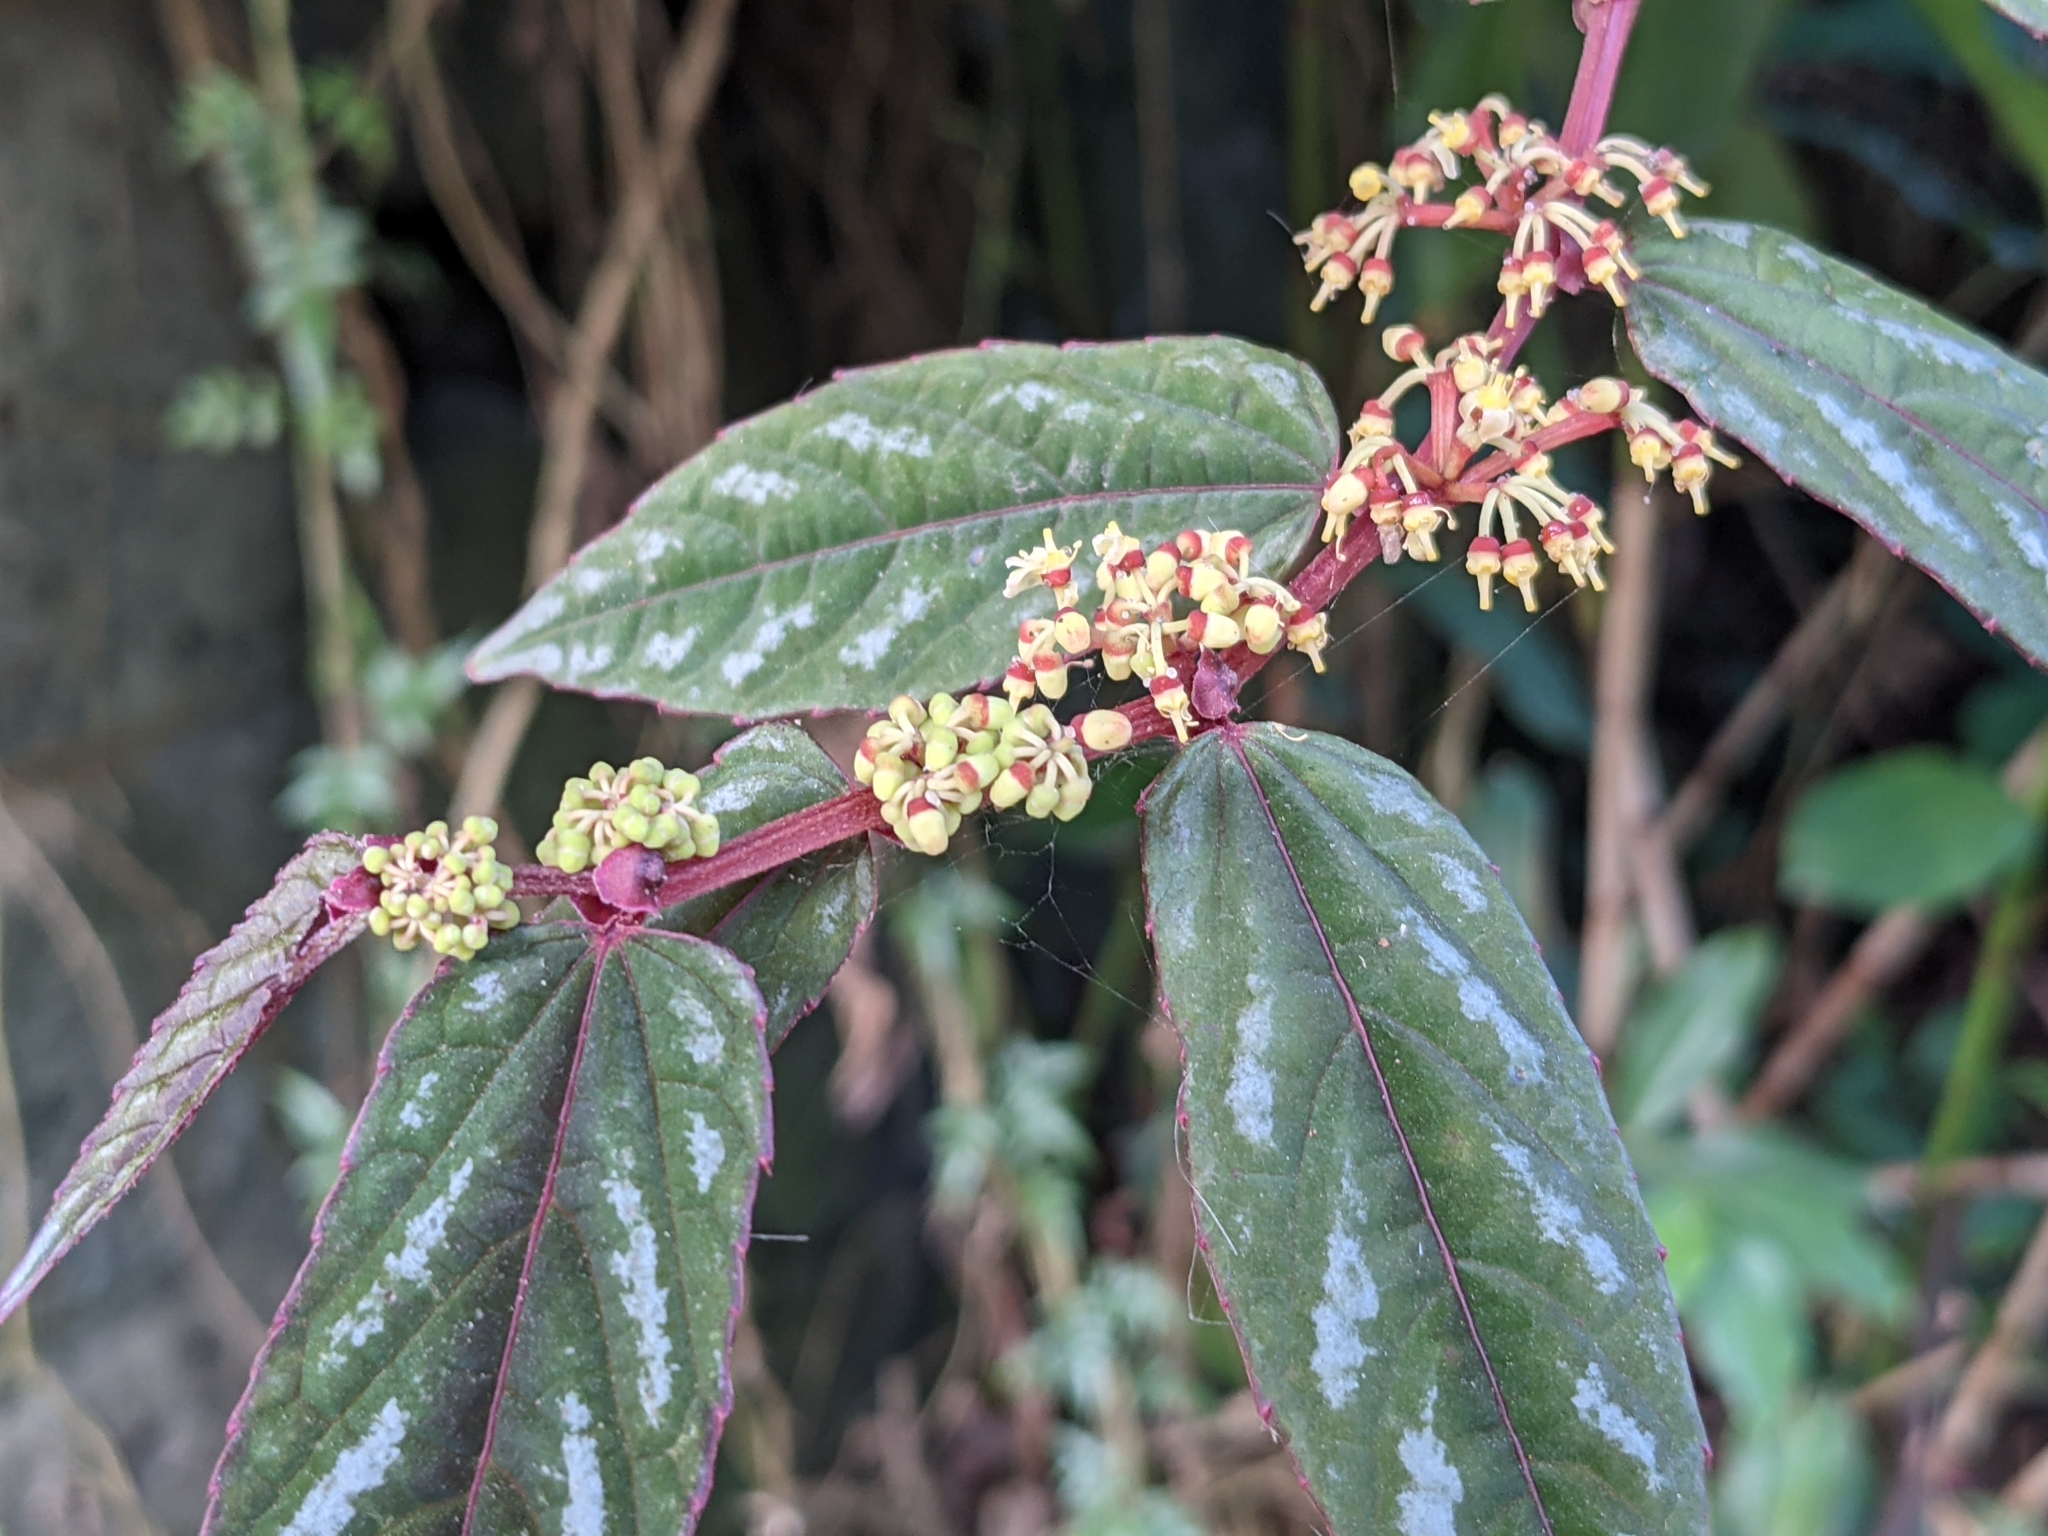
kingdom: Plantae
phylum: Tracheophyta
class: Magnoliopsida
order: Vitales
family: Vitaceae
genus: Cissus
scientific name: Cissus discolor
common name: Climbing-begonia
